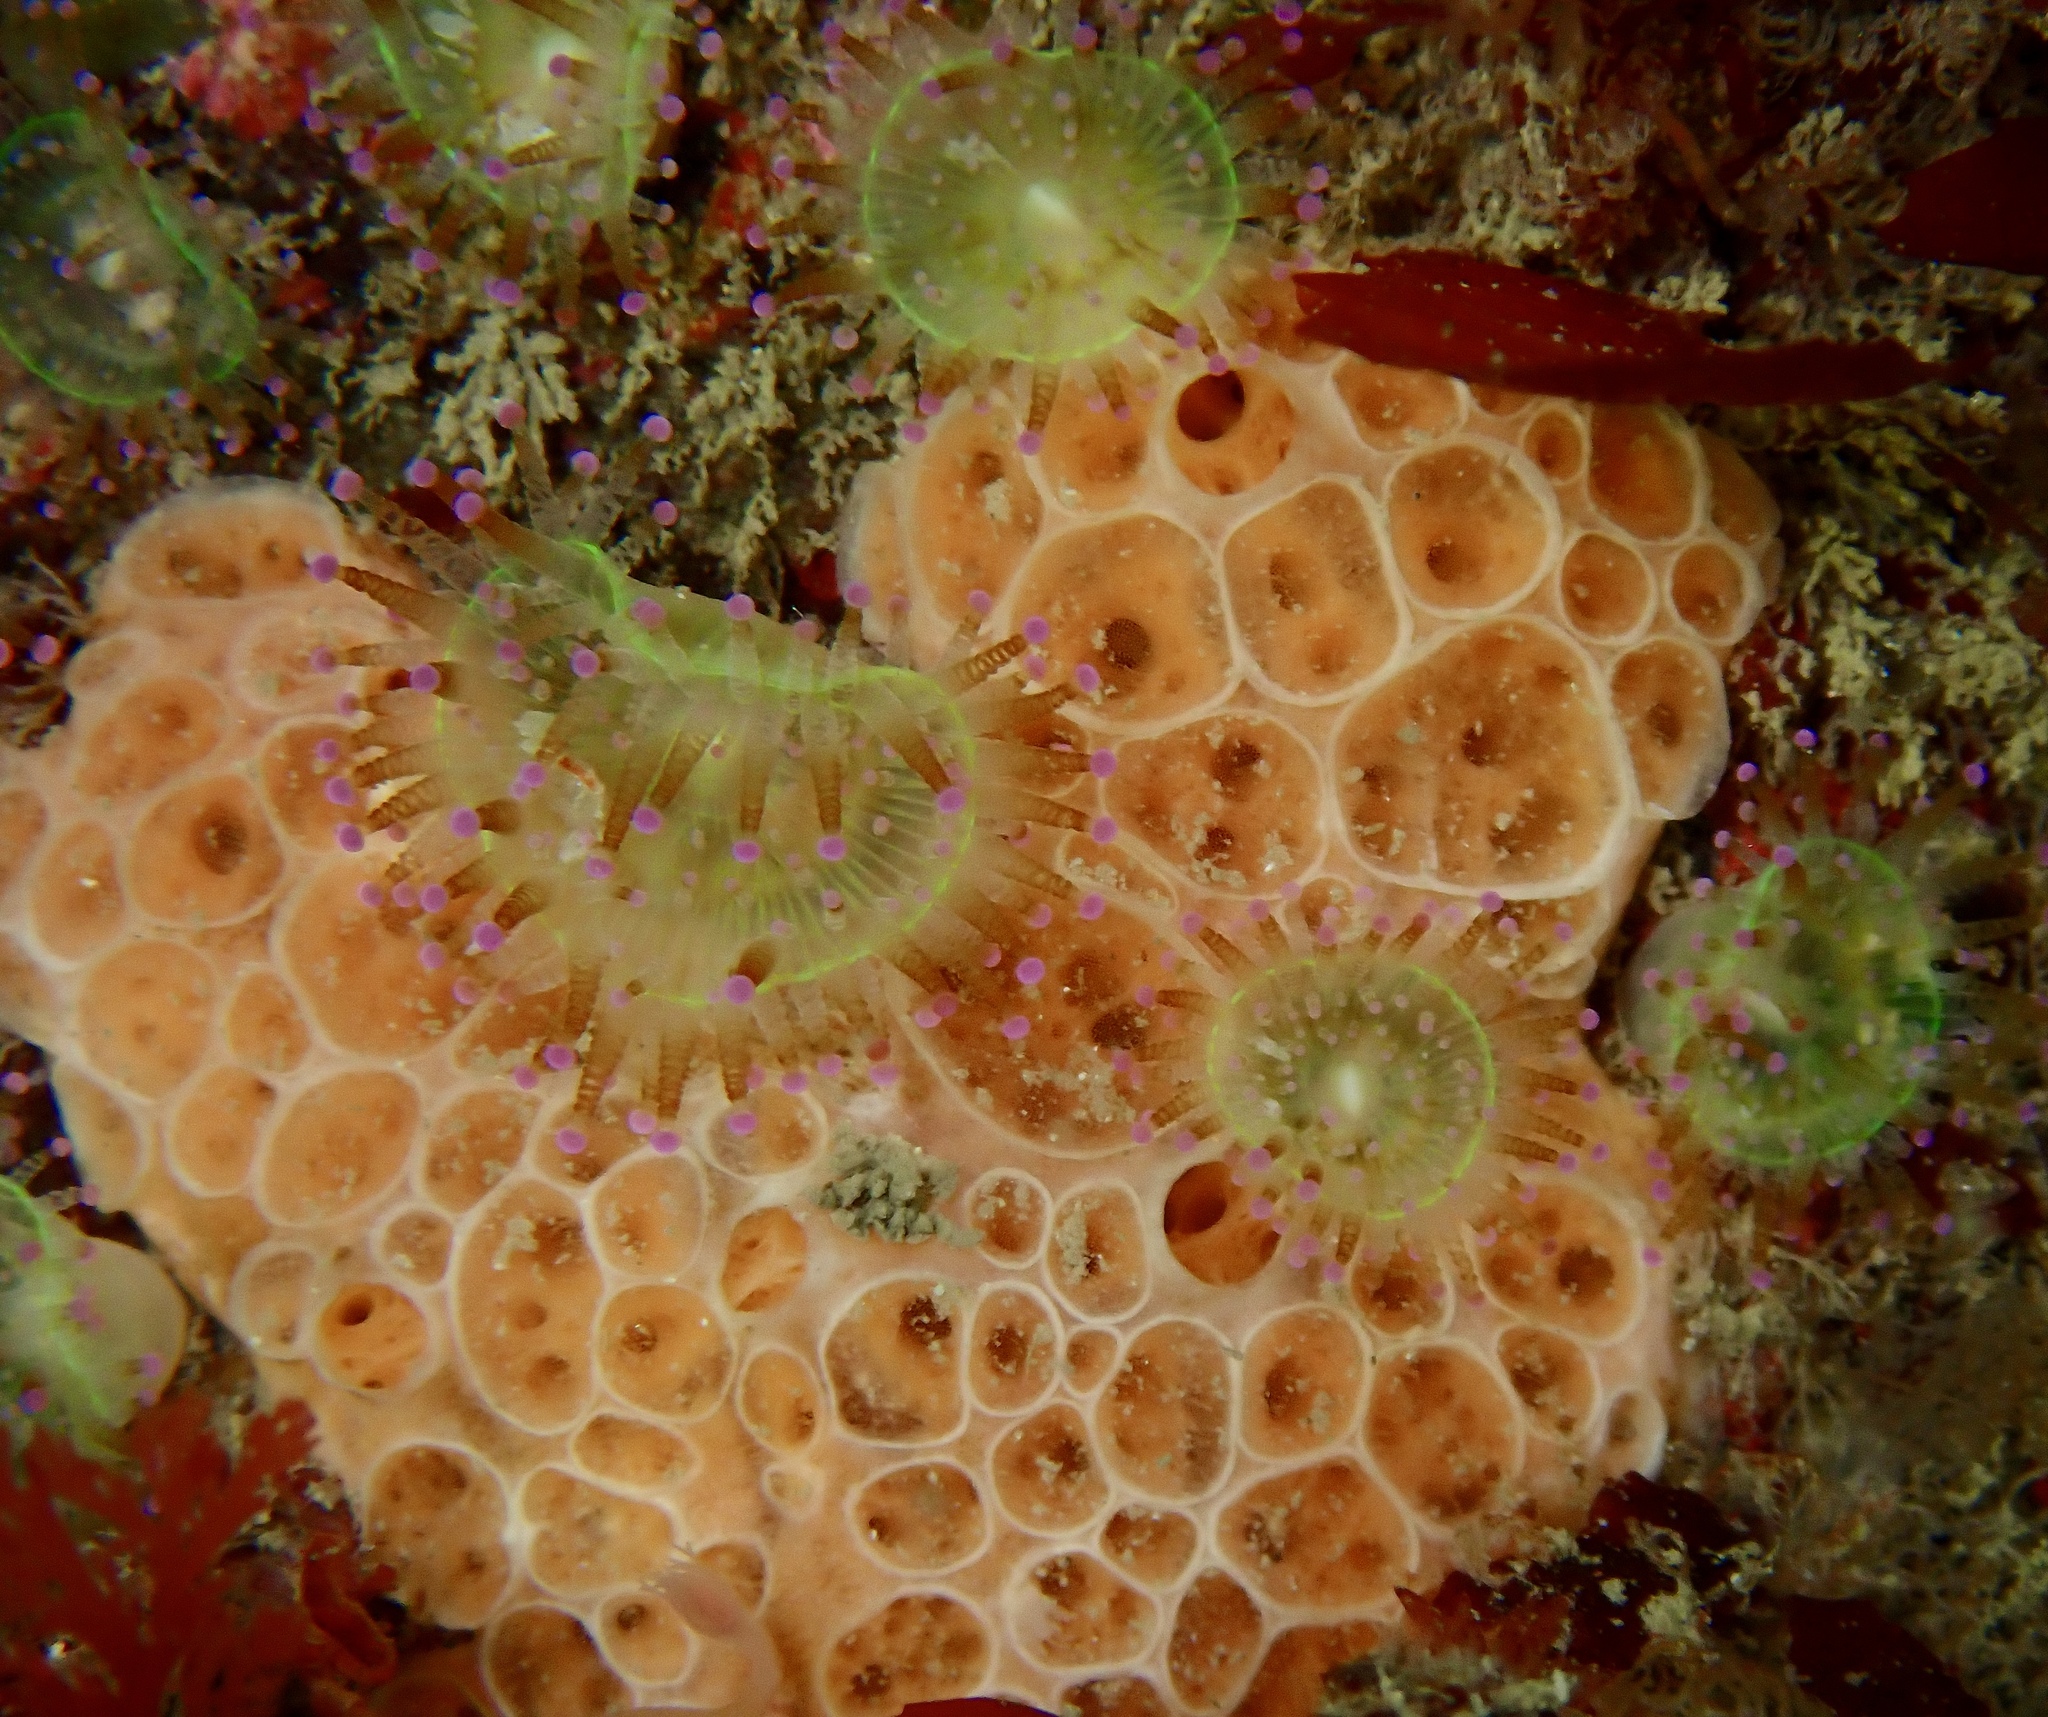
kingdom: Animalia
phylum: Porifera
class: Demospongiae
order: Poecilosclerida
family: Hymedesmiidae
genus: Hemimycale
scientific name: Hemimycale columella
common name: Crater sponge
